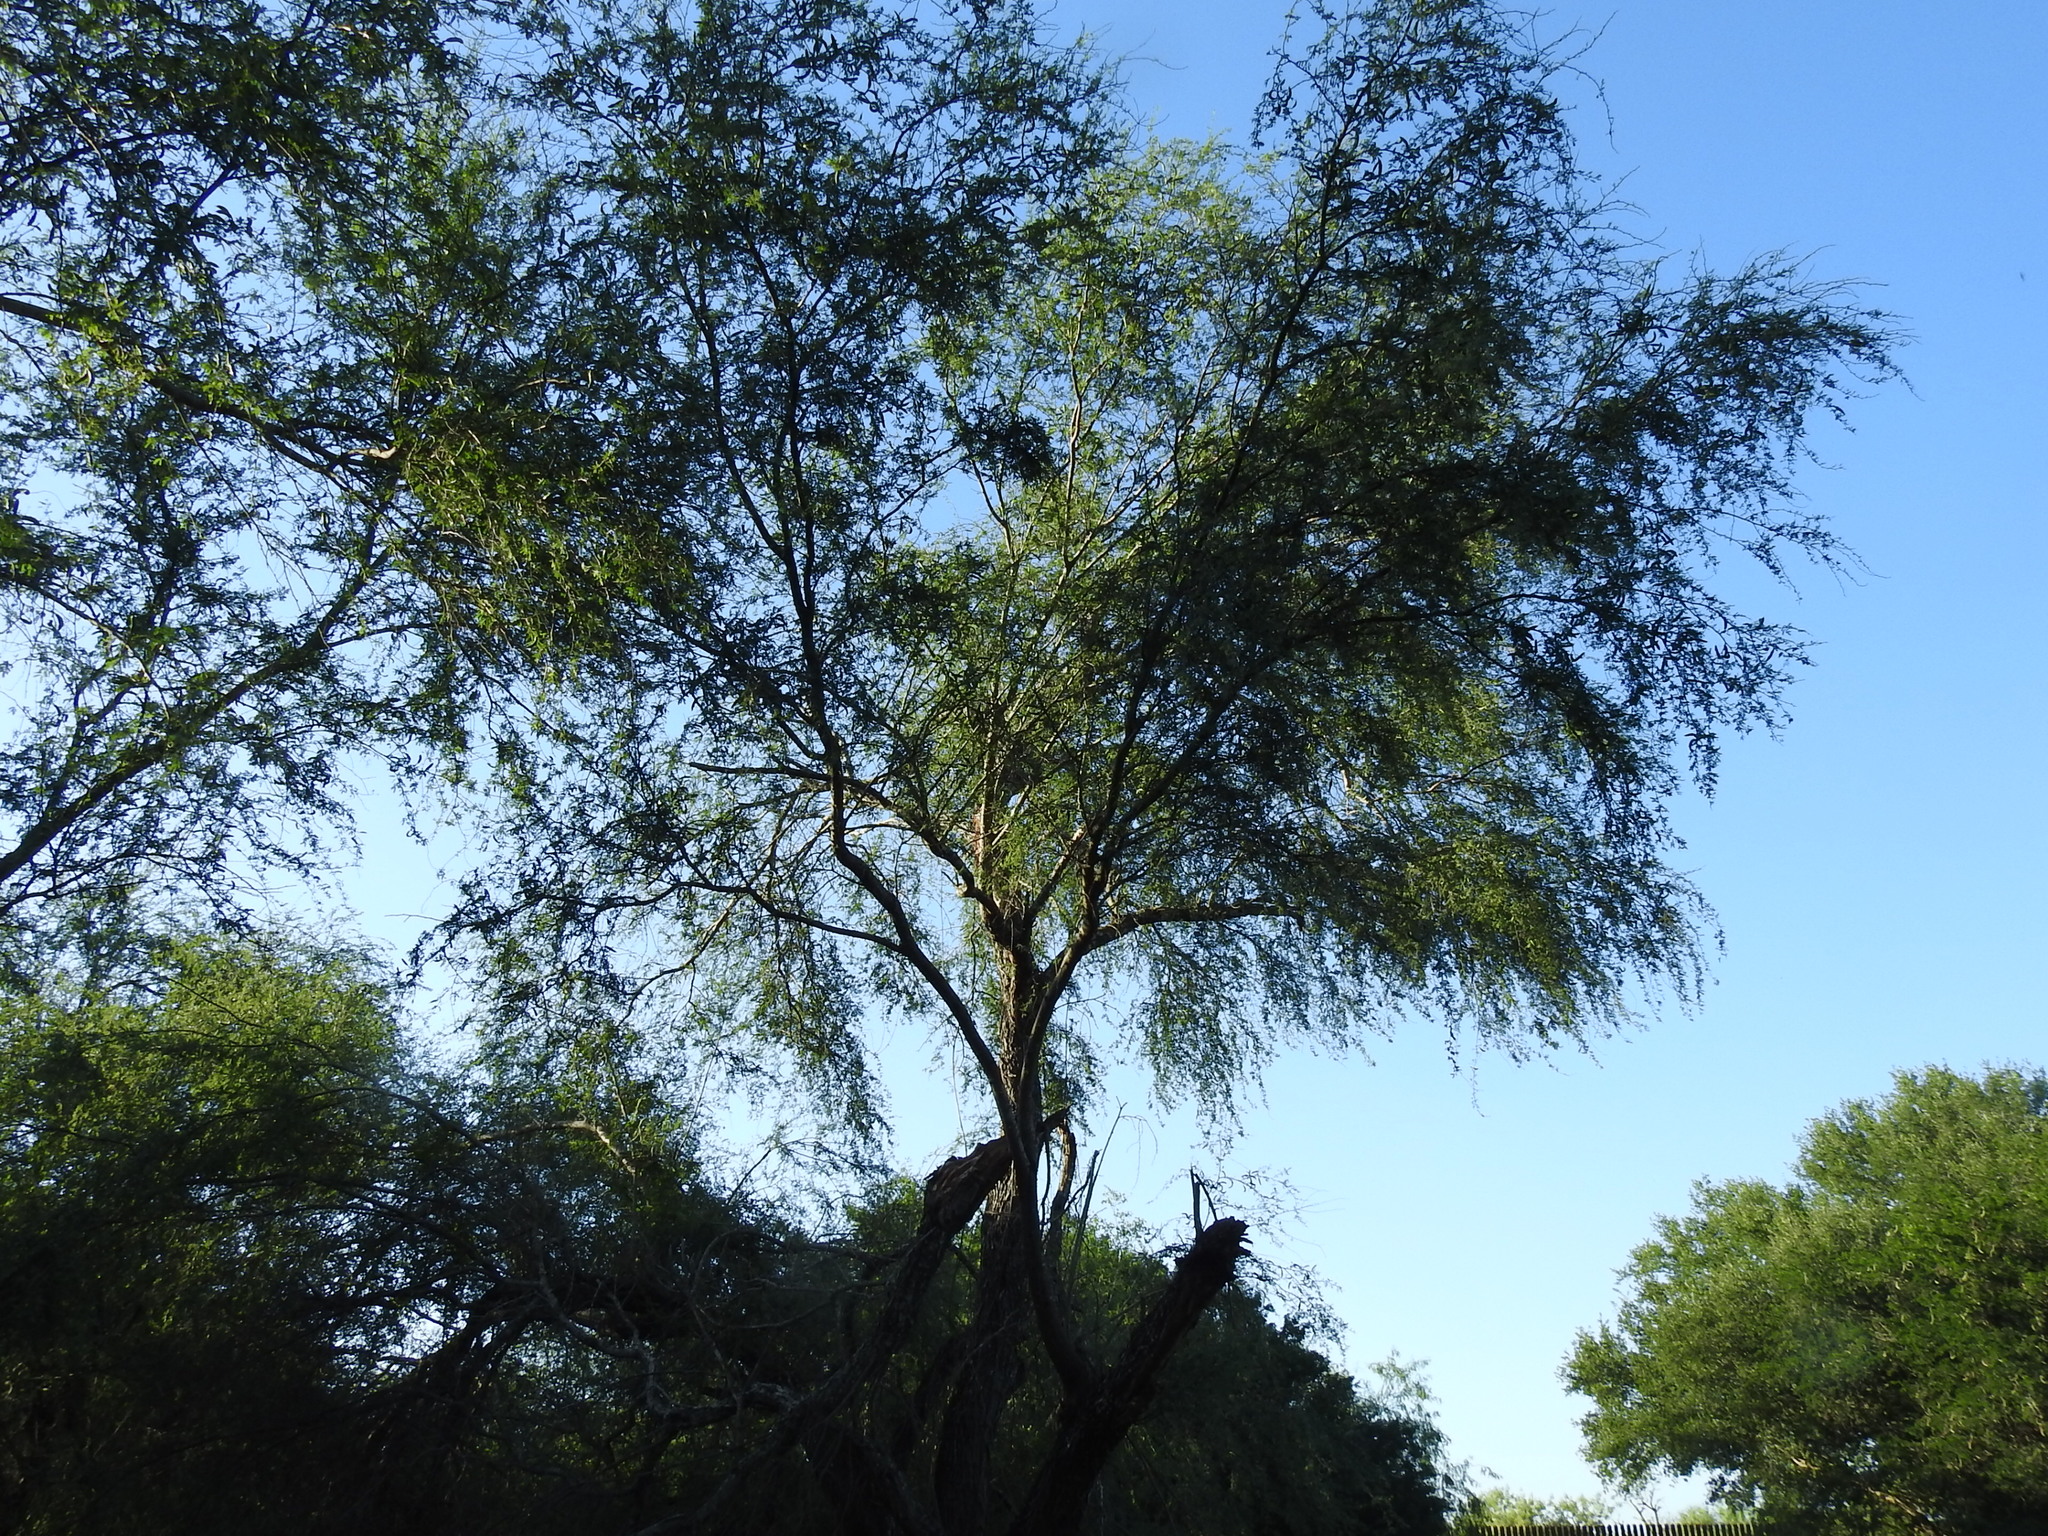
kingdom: Plantae
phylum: Tracheophyta
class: Magnoliopsida
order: Fabales
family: Fabaceae
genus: Vachellia
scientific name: Vachellia farnesiana
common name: Sweet acacia
